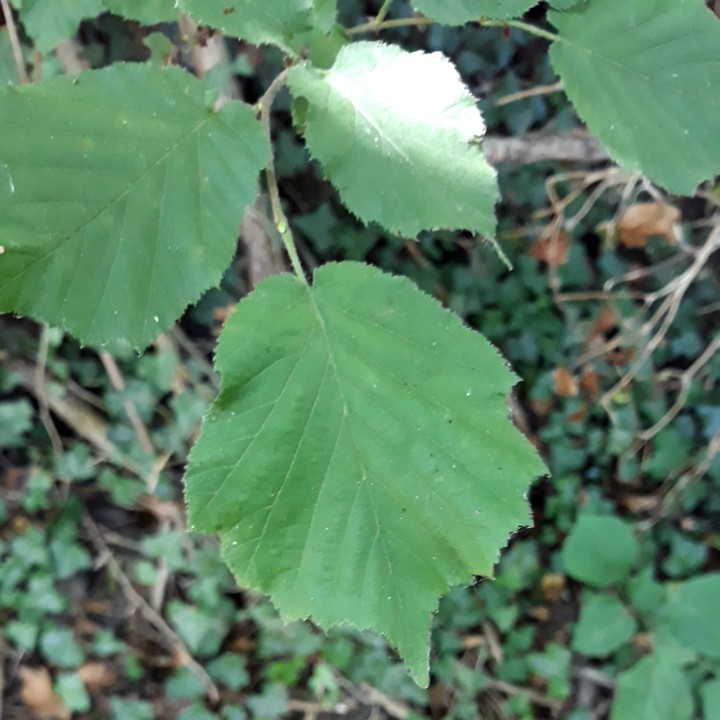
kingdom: Plantae
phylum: Tracheophyta
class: Magnoliopsida
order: Fagales
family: Betulaceae
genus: Corylus
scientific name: Corylus avellana
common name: European hazel
